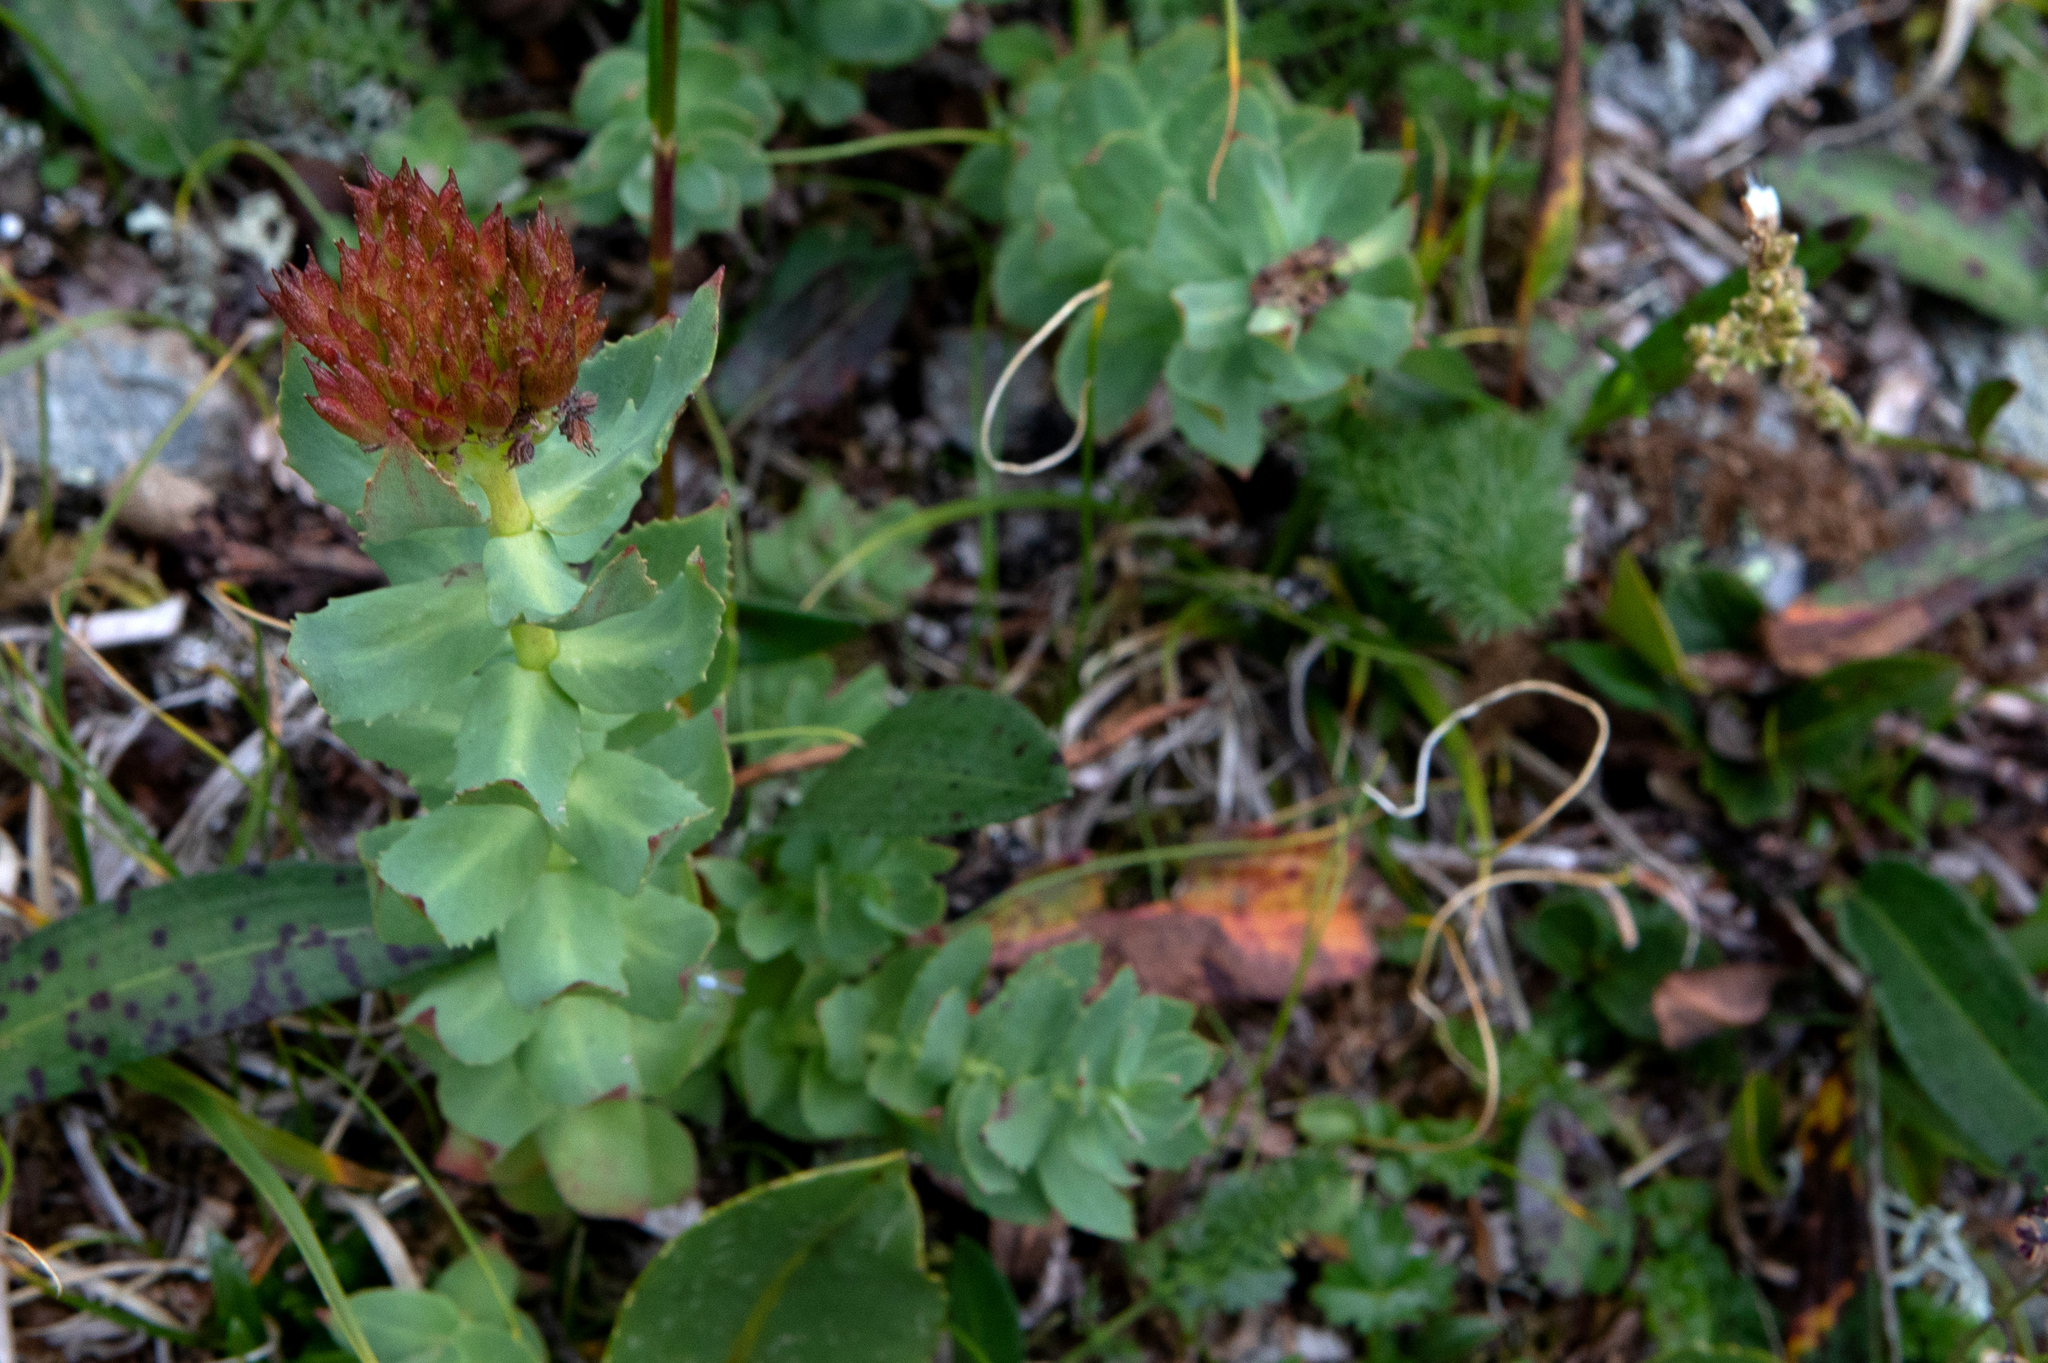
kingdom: Plantae
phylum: Tracheophyta
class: Magnoliopsida
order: Saxifragales
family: Crassulaceae
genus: Rhodiola
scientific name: Rhodiola rosea
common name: Roseroot
